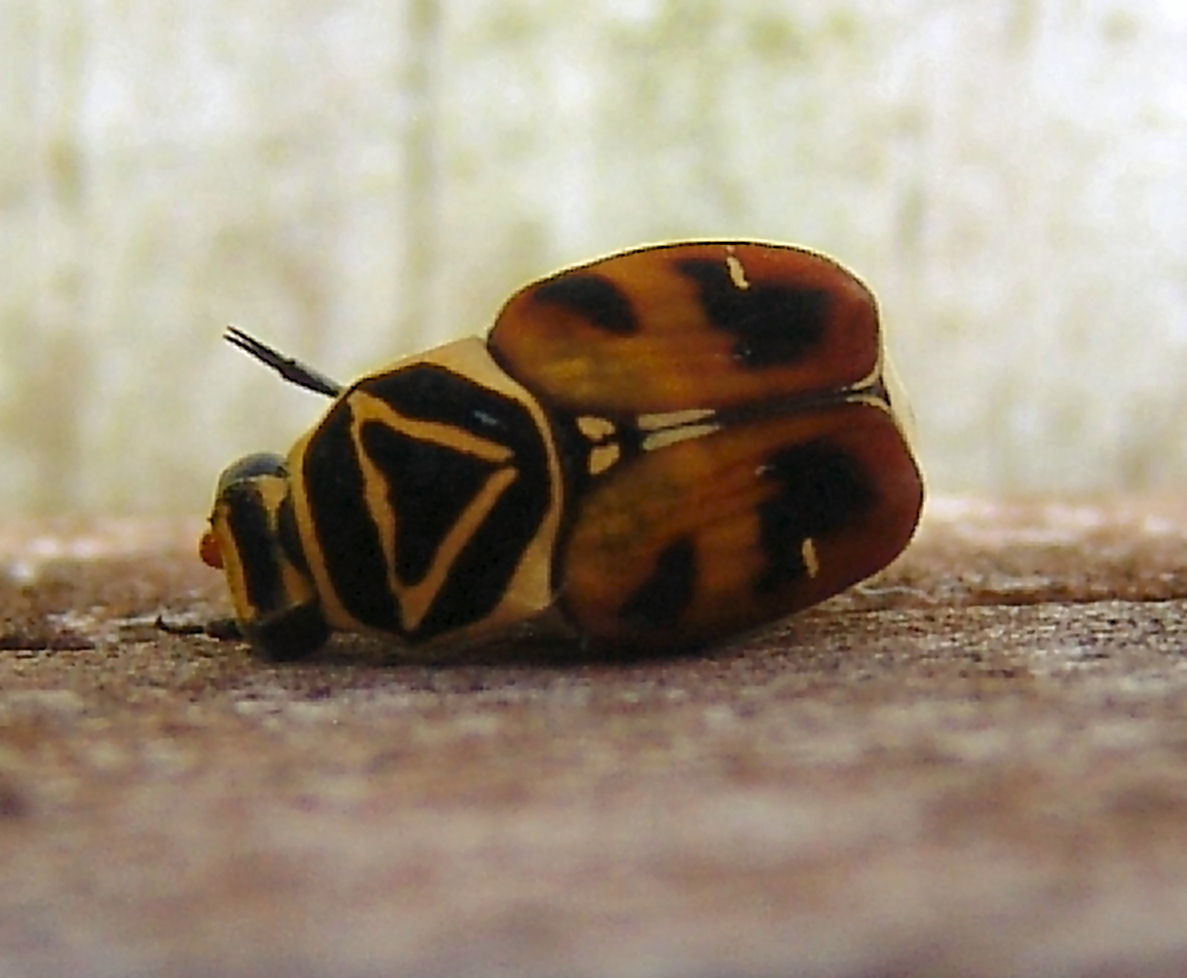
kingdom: Animalia
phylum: Arthropoda
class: Insecta
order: Coleoptera
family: Scarabaeidae
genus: Trigonopeltastes
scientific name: Trigonopeltastes delta
